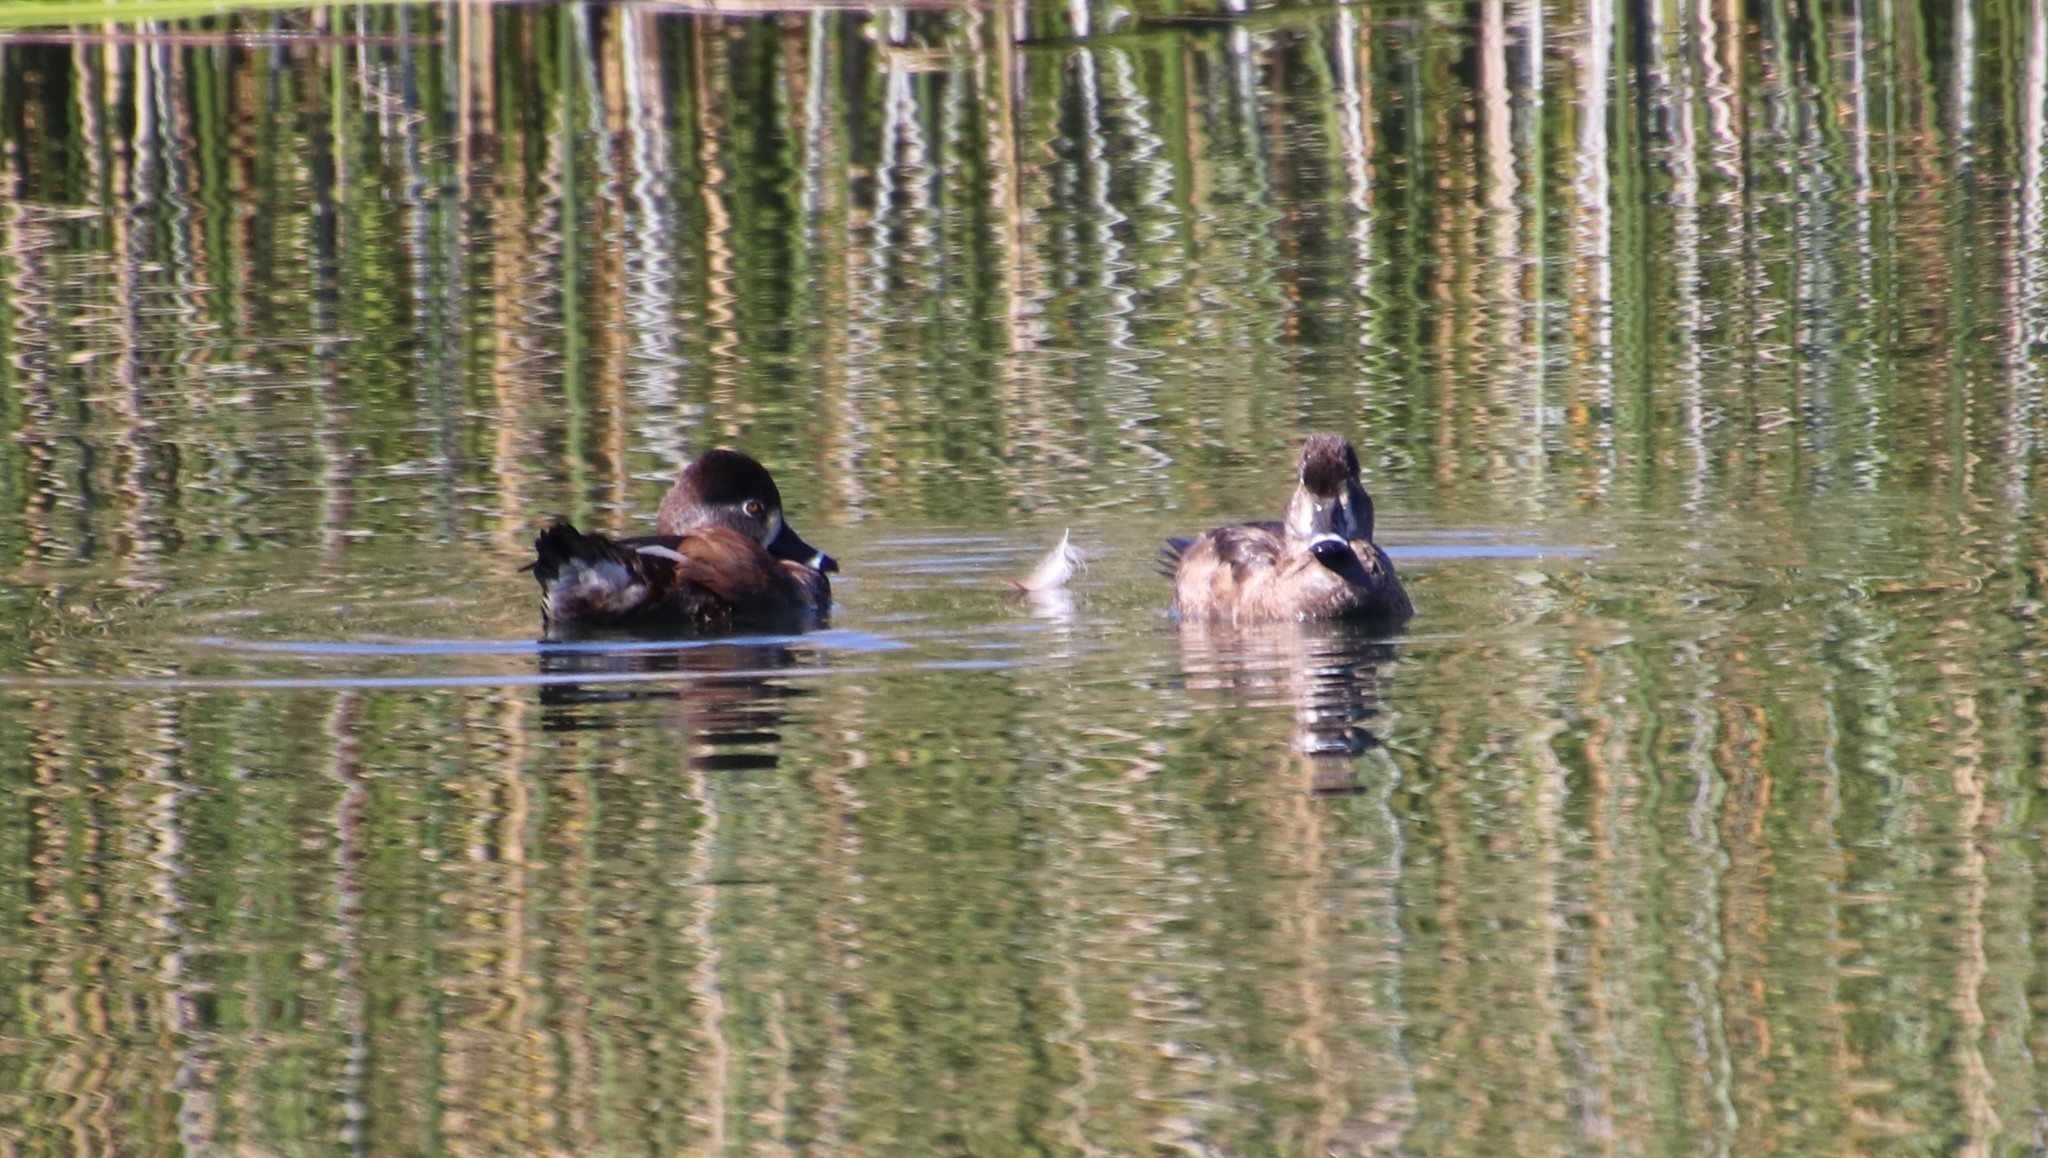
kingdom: Animalia
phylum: Chordata
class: Aves
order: Anseriformes
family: Anatidae
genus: Aythya
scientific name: Aythya collaris
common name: Ring-necked duck
